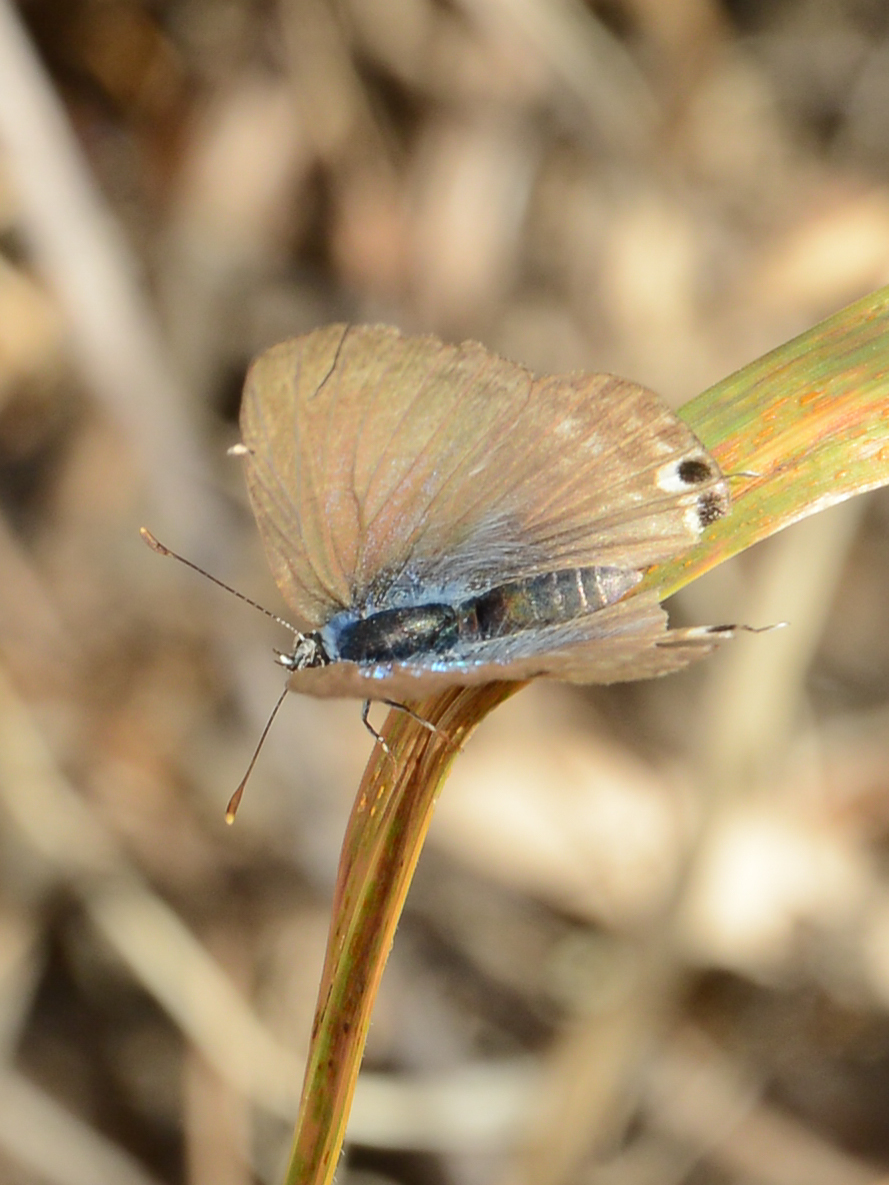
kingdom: Animalia
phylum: Arthropoda
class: Insecta
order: Lepidoptera
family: Lycaenidae
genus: Lampides
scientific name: Lampides boeticus
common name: Long-tailed blue
